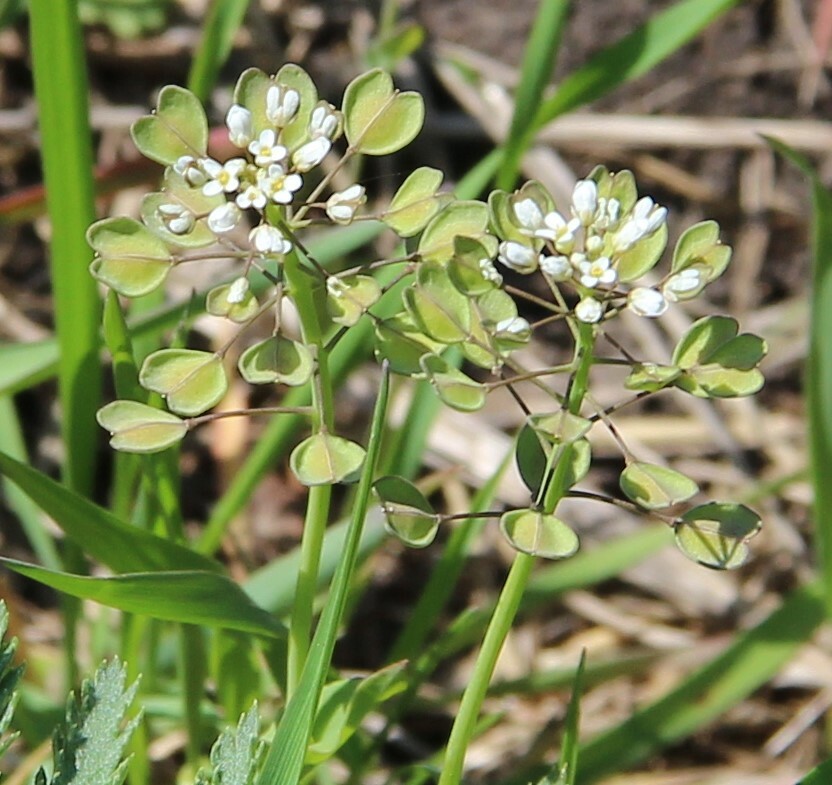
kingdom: Plantae
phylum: Tracheophyta
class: Magnoliopsida
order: Brassicales
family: Brassicaceae
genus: Noccaea
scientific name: Noccaea perfoliata
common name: Perfoliate pennycress
